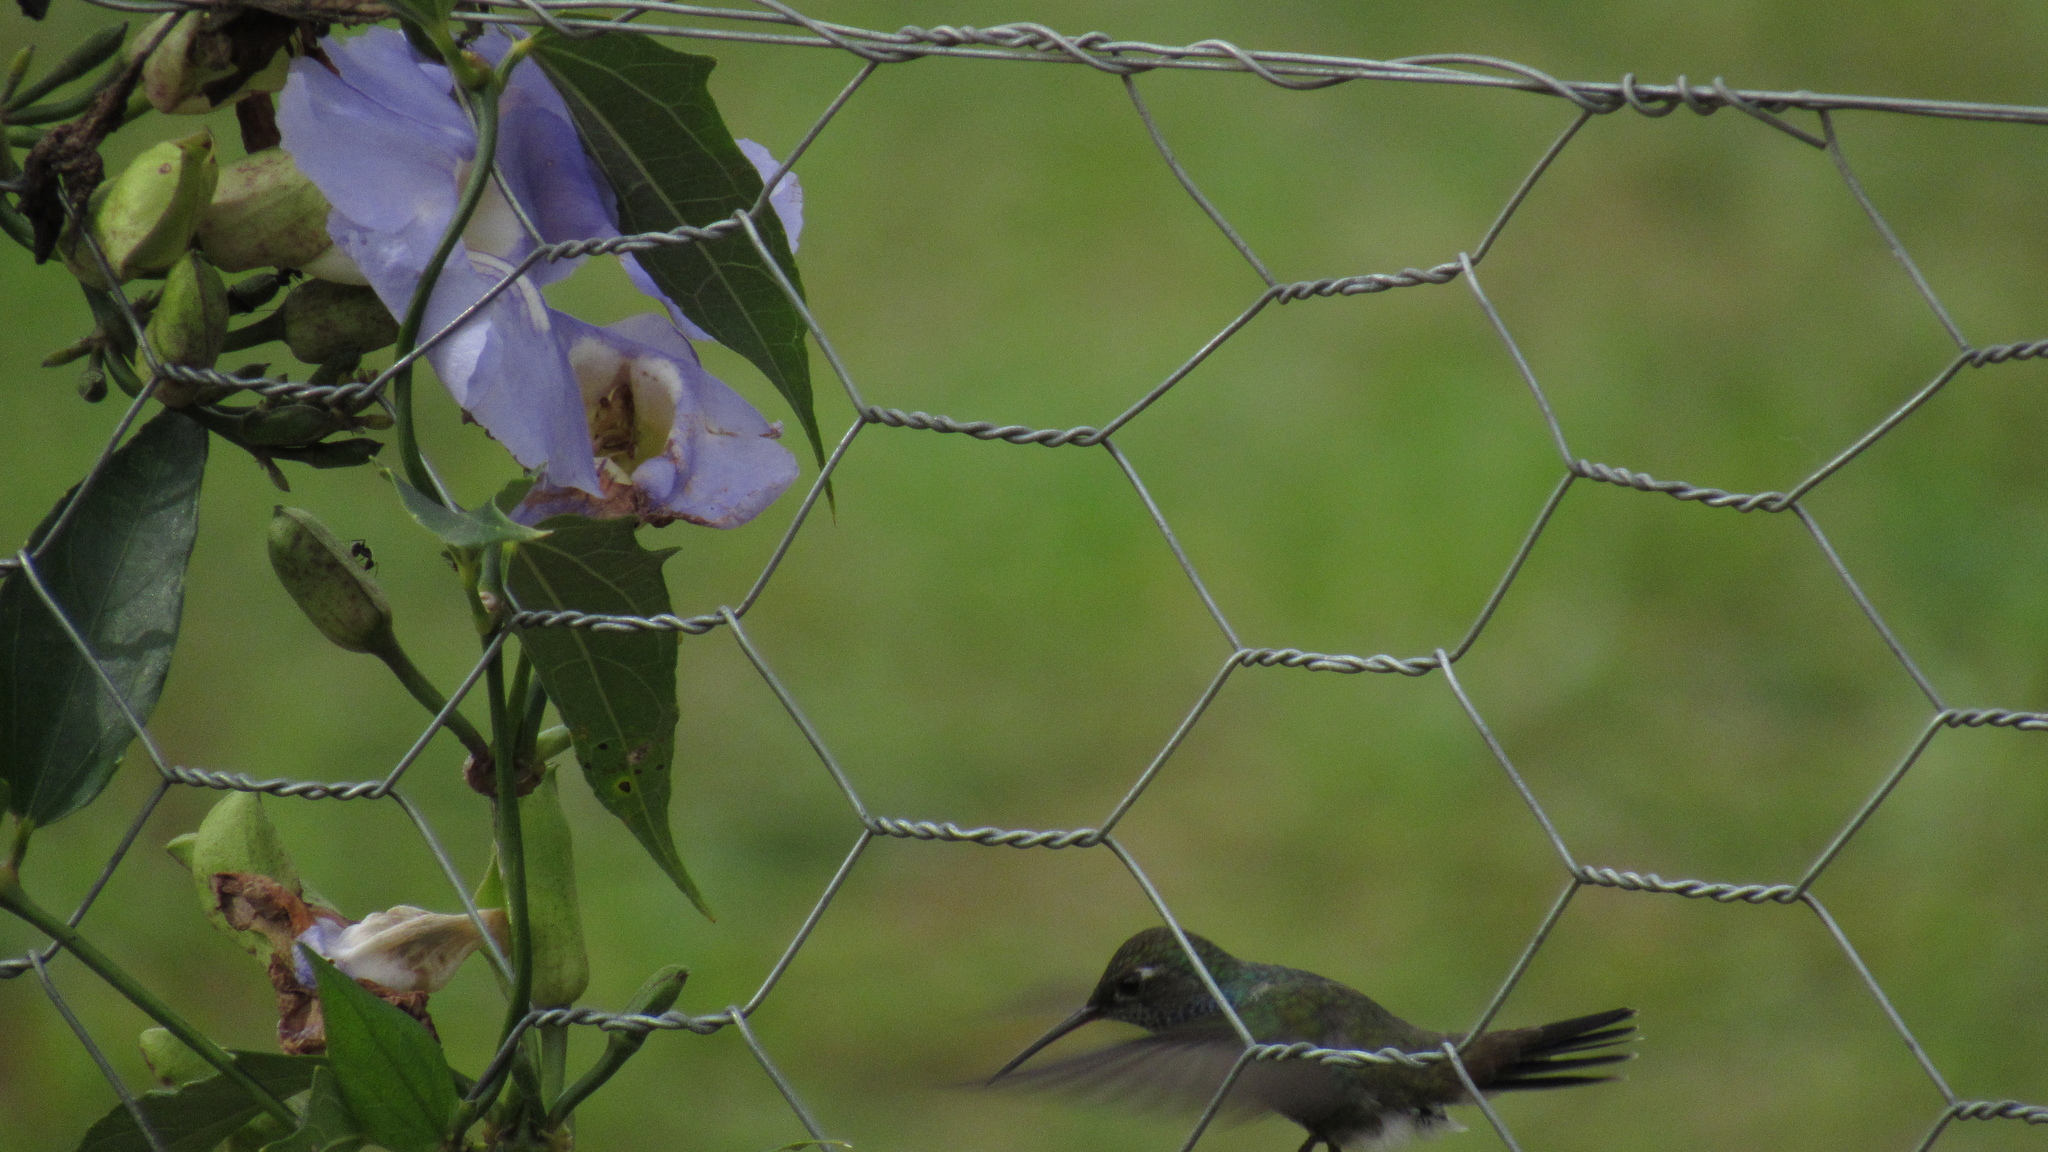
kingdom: Animalia
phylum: Chordata
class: Aves
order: Apodiformes
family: Trochilidae
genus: Chionomesa
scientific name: Chionomesa lactea
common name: Sapphire-spangled emerald
